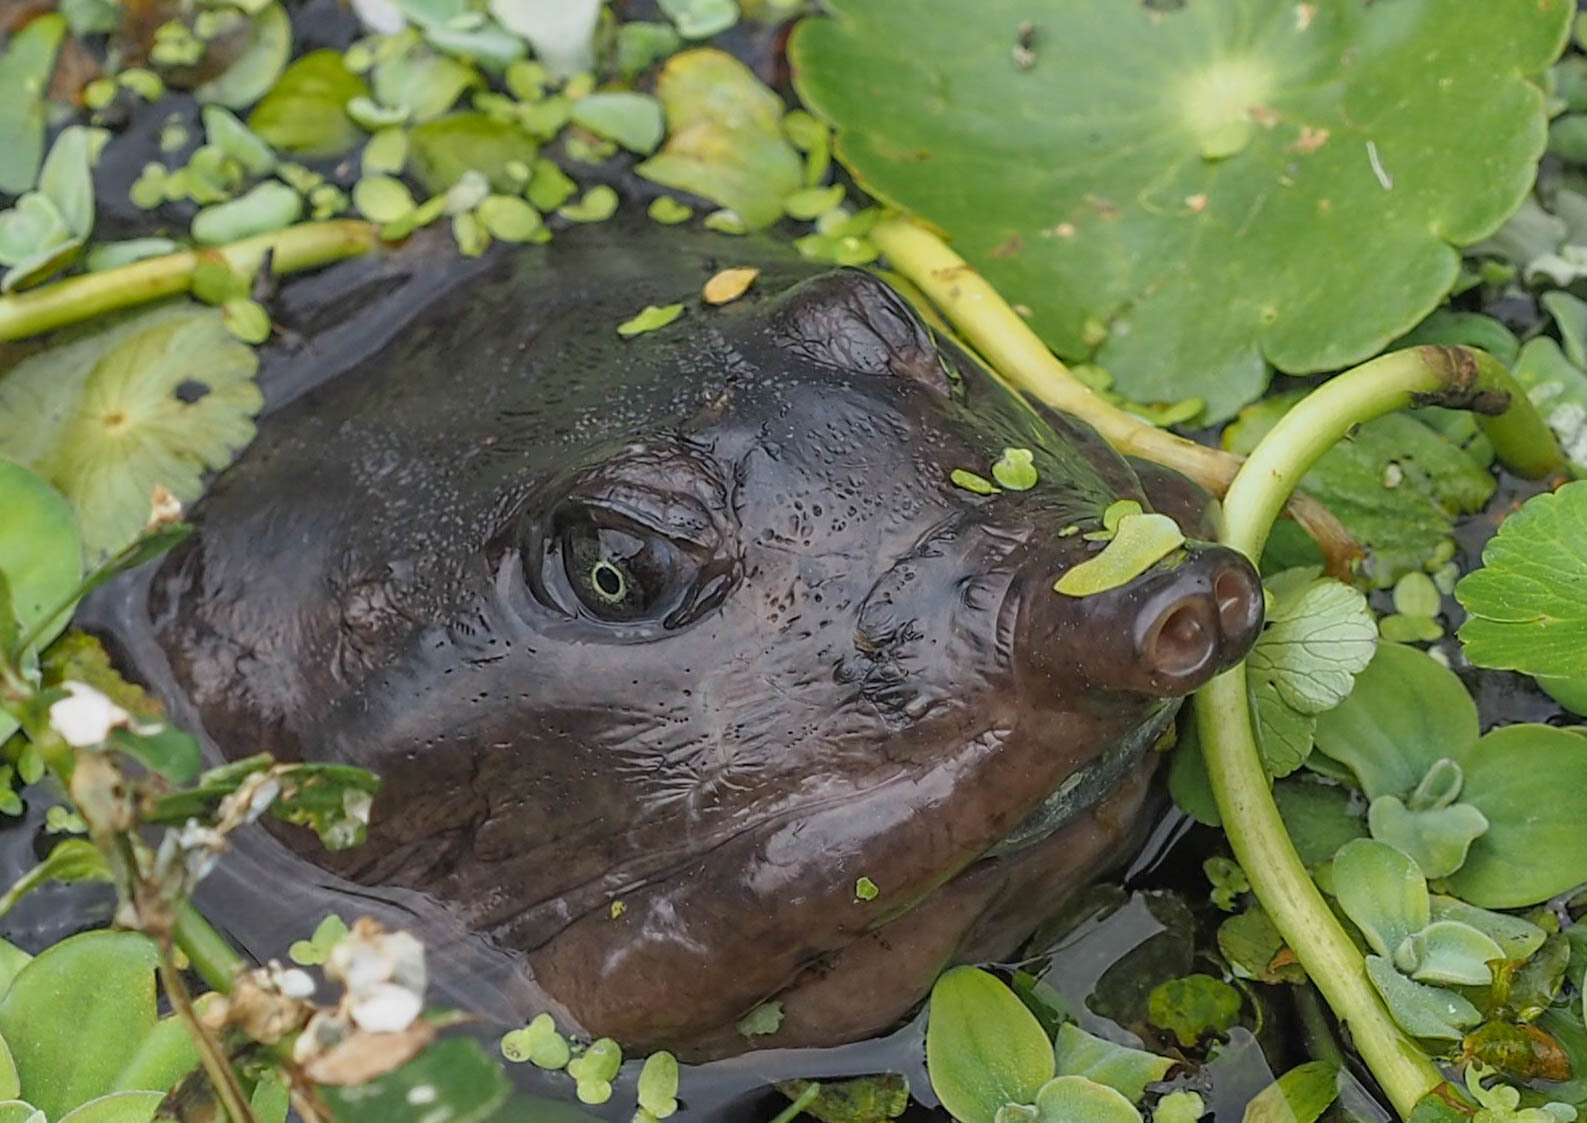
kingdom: Animalia
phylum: Chordata
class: Testudines
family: Trionychidae
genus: Apalone
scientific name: Apalone ferox
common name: Florida softshell turtle
